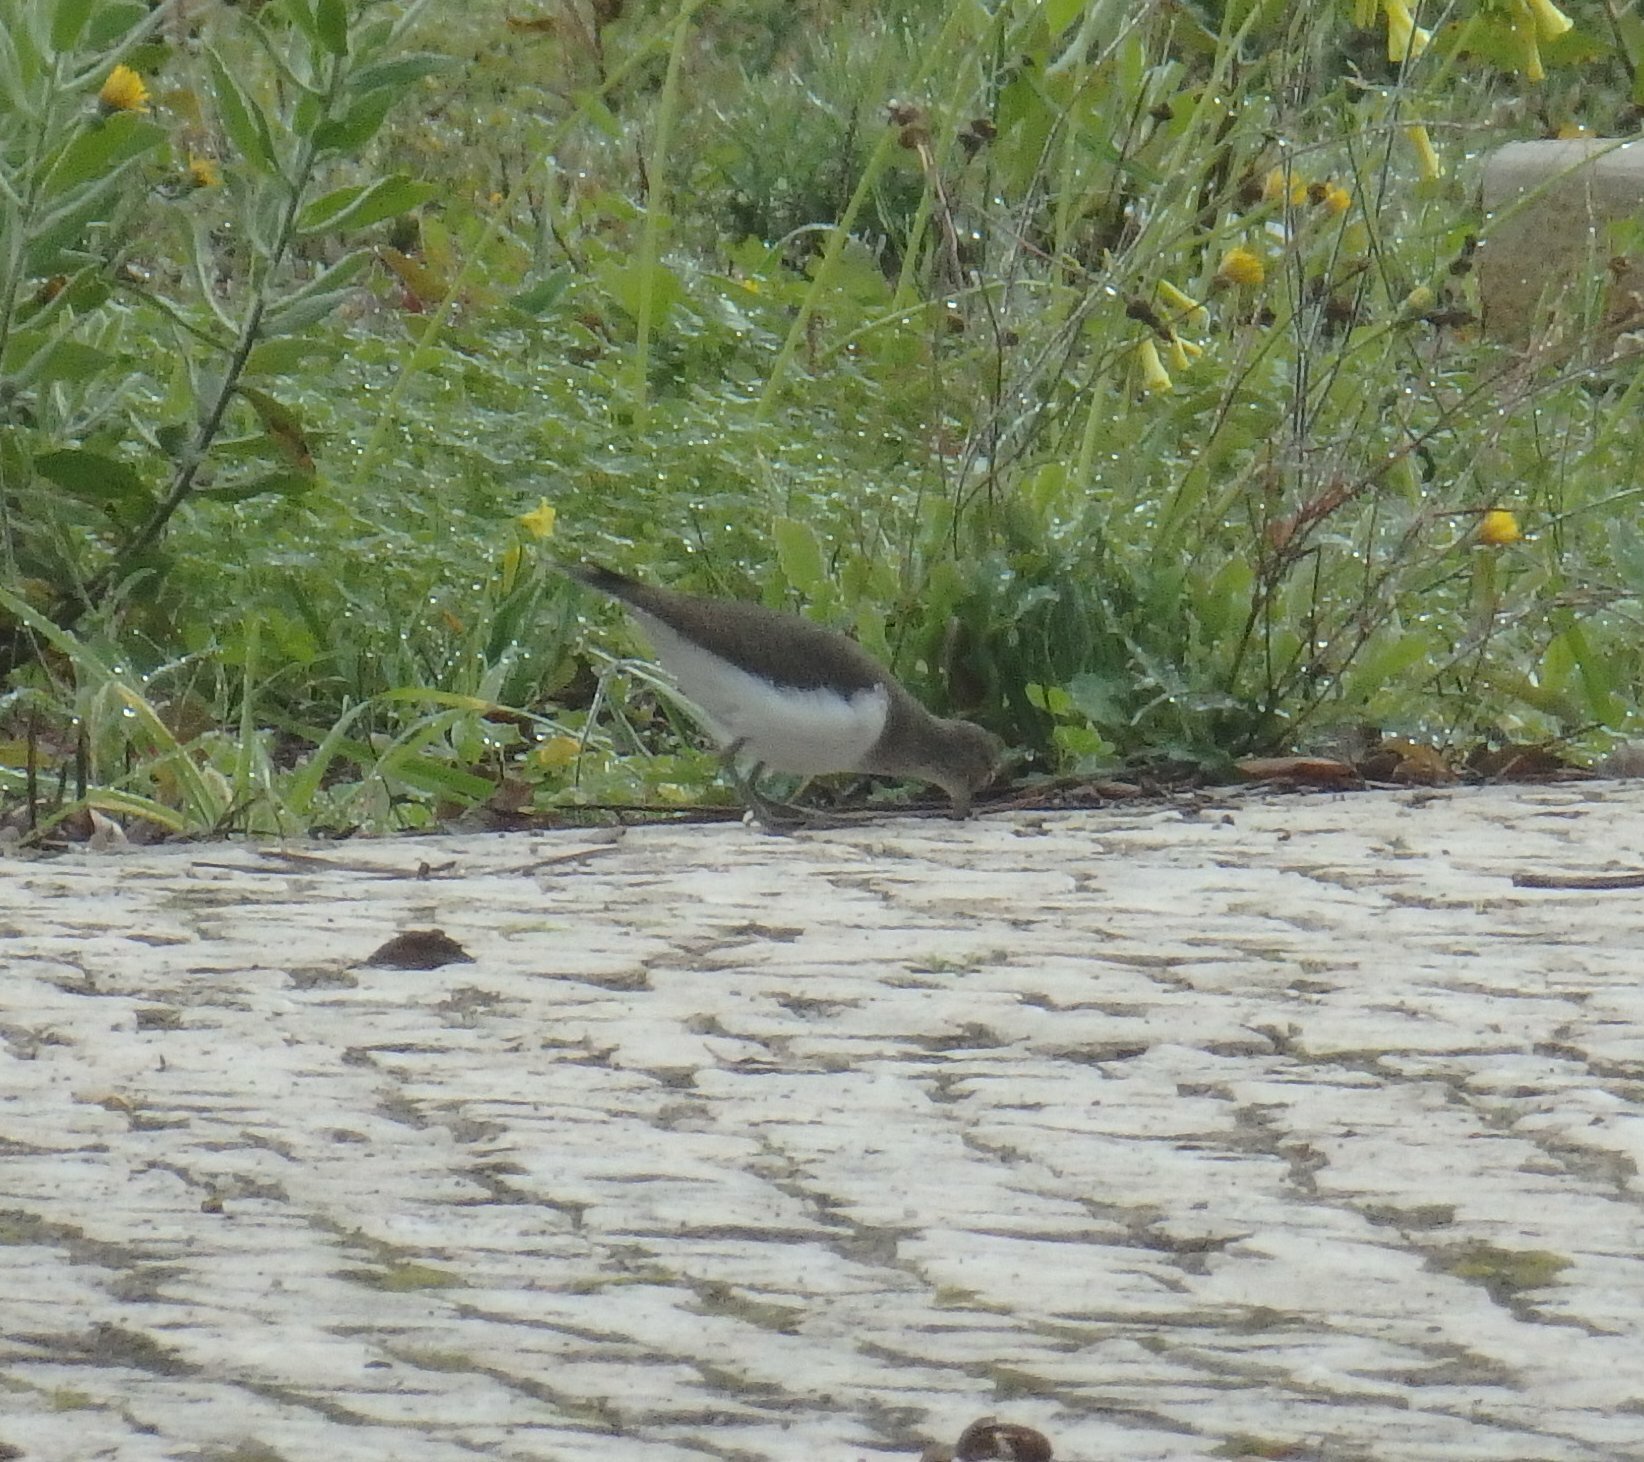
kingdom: Animalia
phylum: Chordata
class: Aves
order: Charadriiformes
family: Scolopacidae
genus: Actitis
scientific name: Actitis hypoleucos
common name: Common sandpiper
